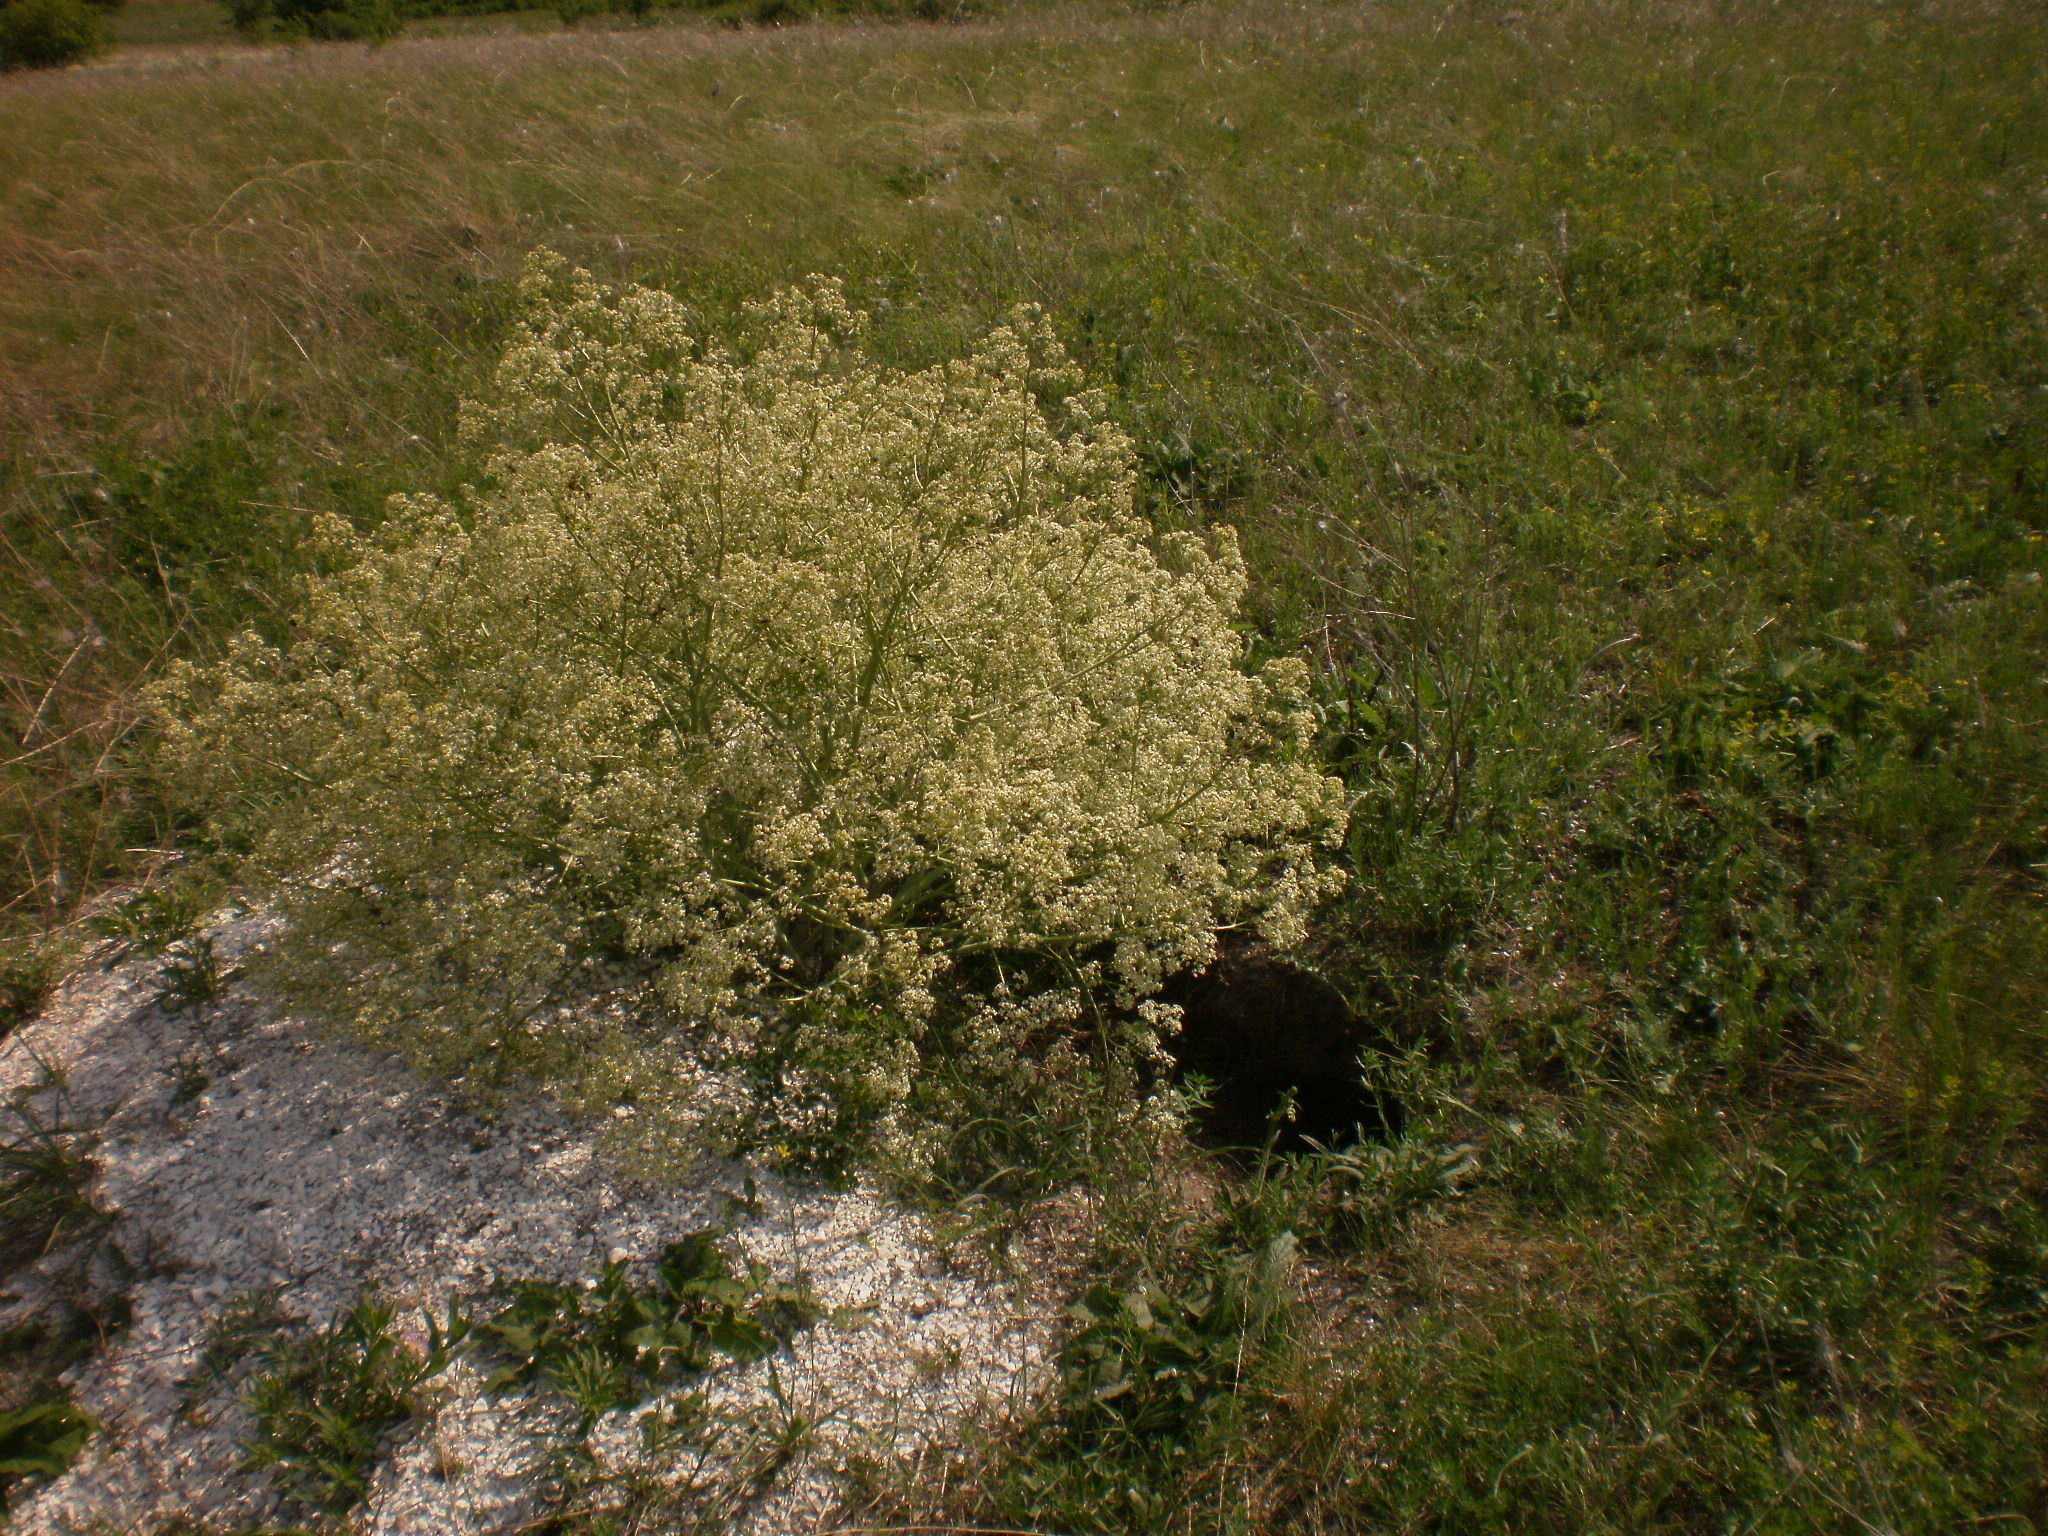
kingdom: Plantae
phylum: Tracheophyta
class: Magnoliopsida
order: Brassicales
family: Brassicaceae
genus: Crambe
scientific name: Crambe tataria
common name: Tartarian breadplant
